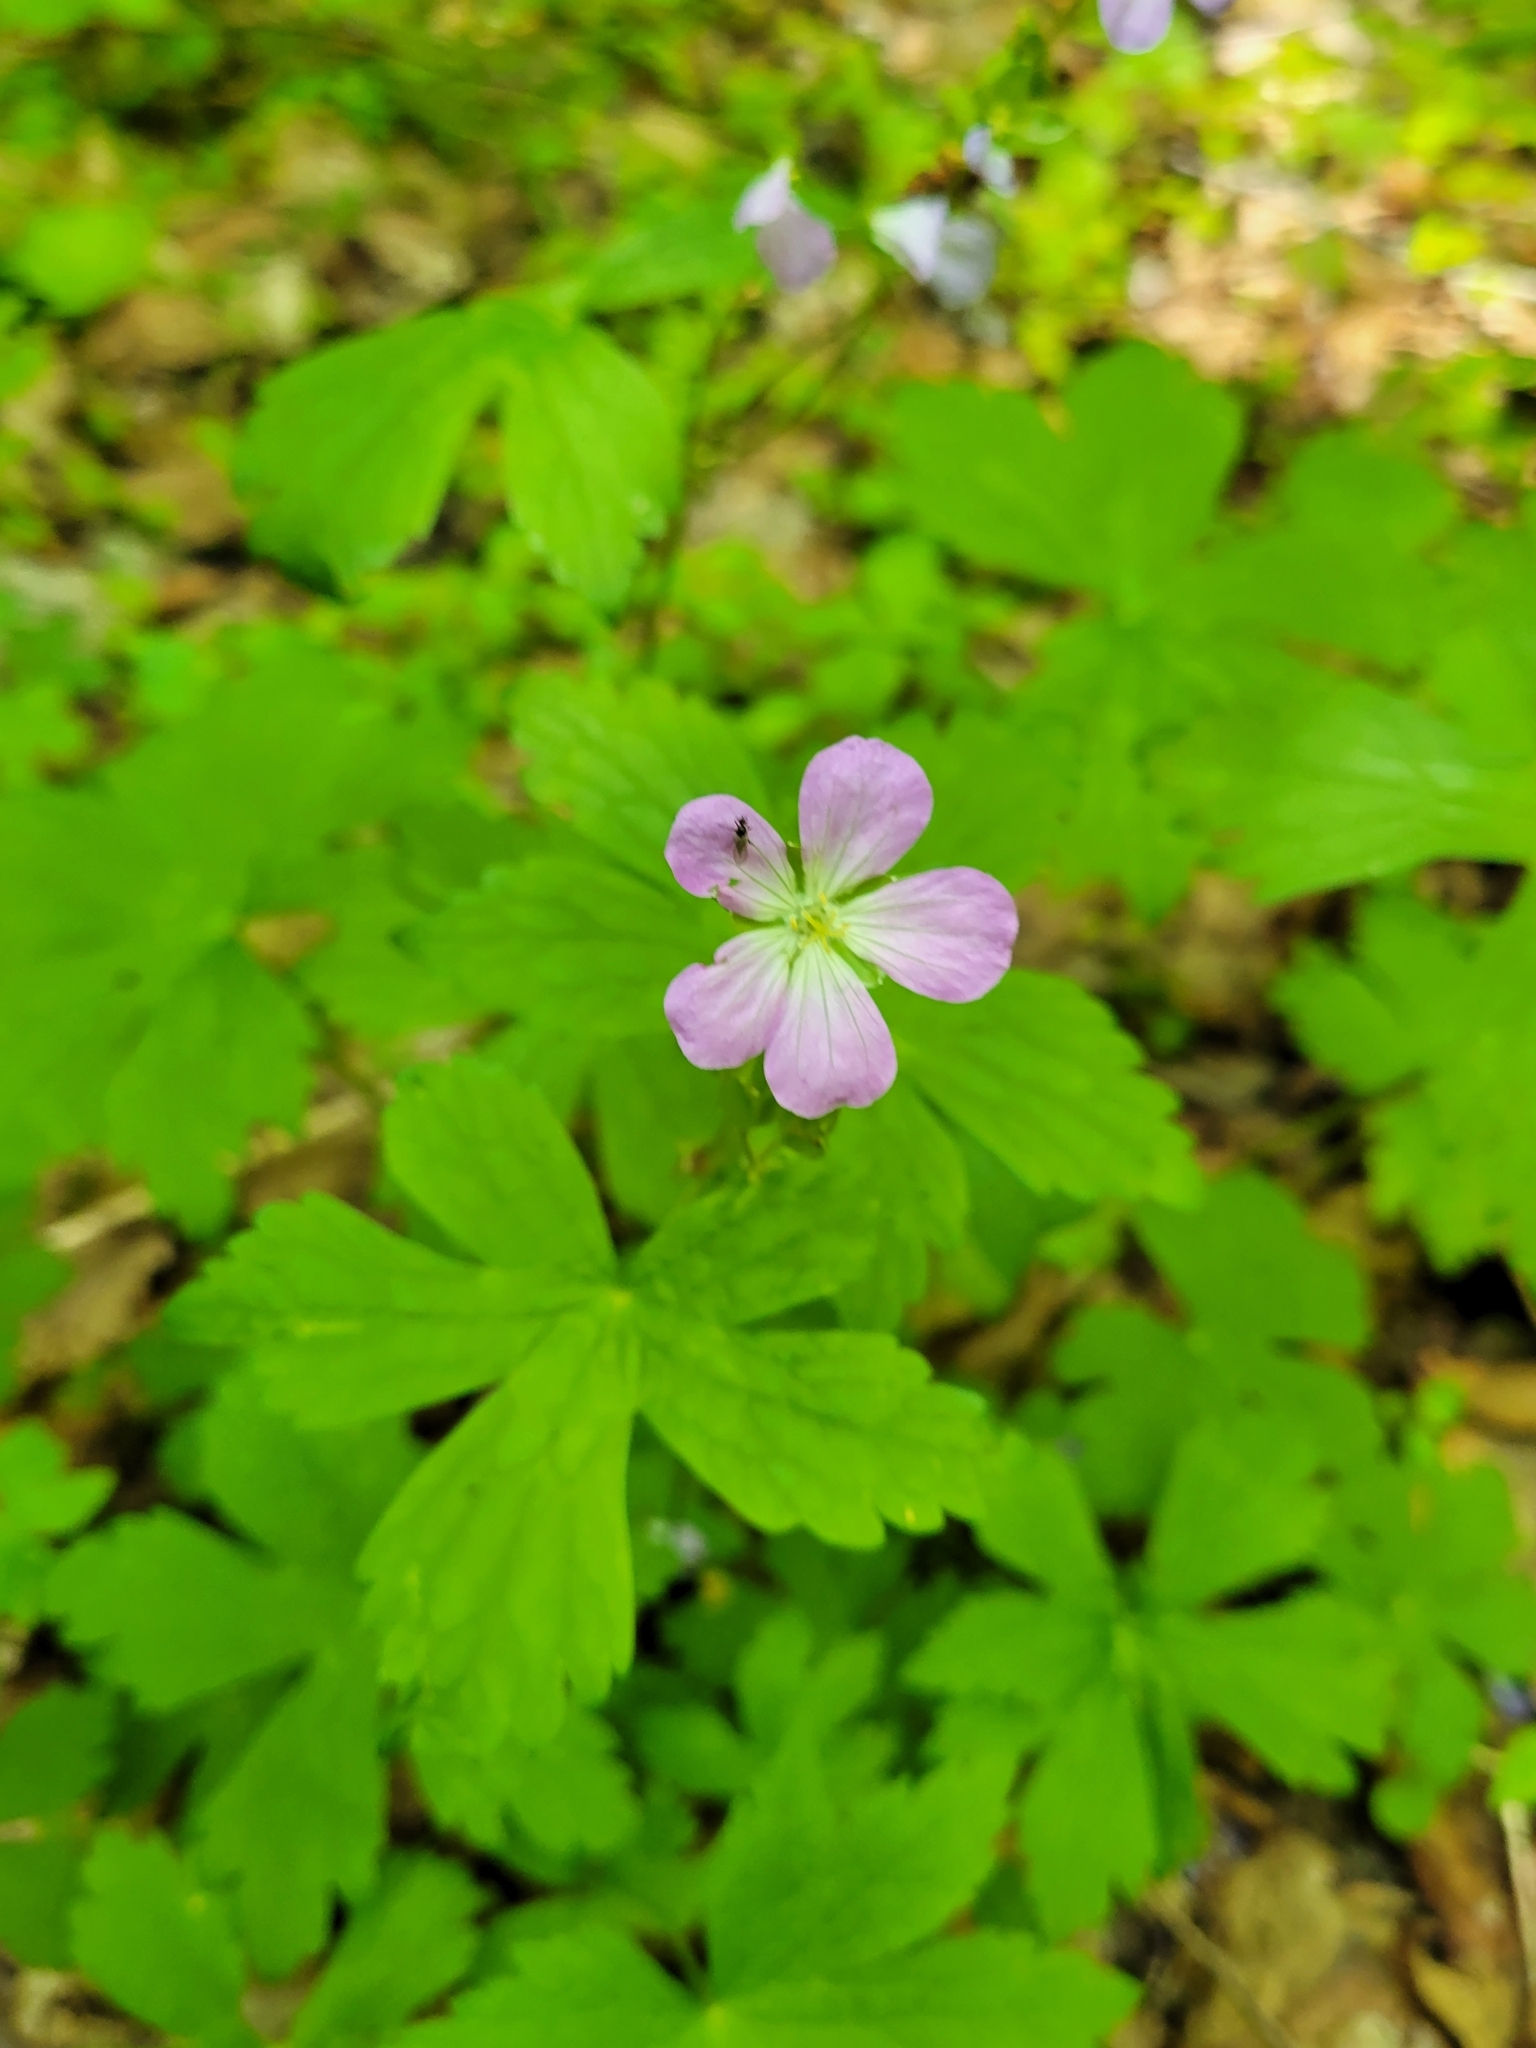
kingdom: Plantae
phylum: Tracheophyta
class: Magnoliopsida
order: Geraniales
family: Geraniaceae
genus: Geranium
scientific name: Geranium maculatum
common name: Spotted geranium
